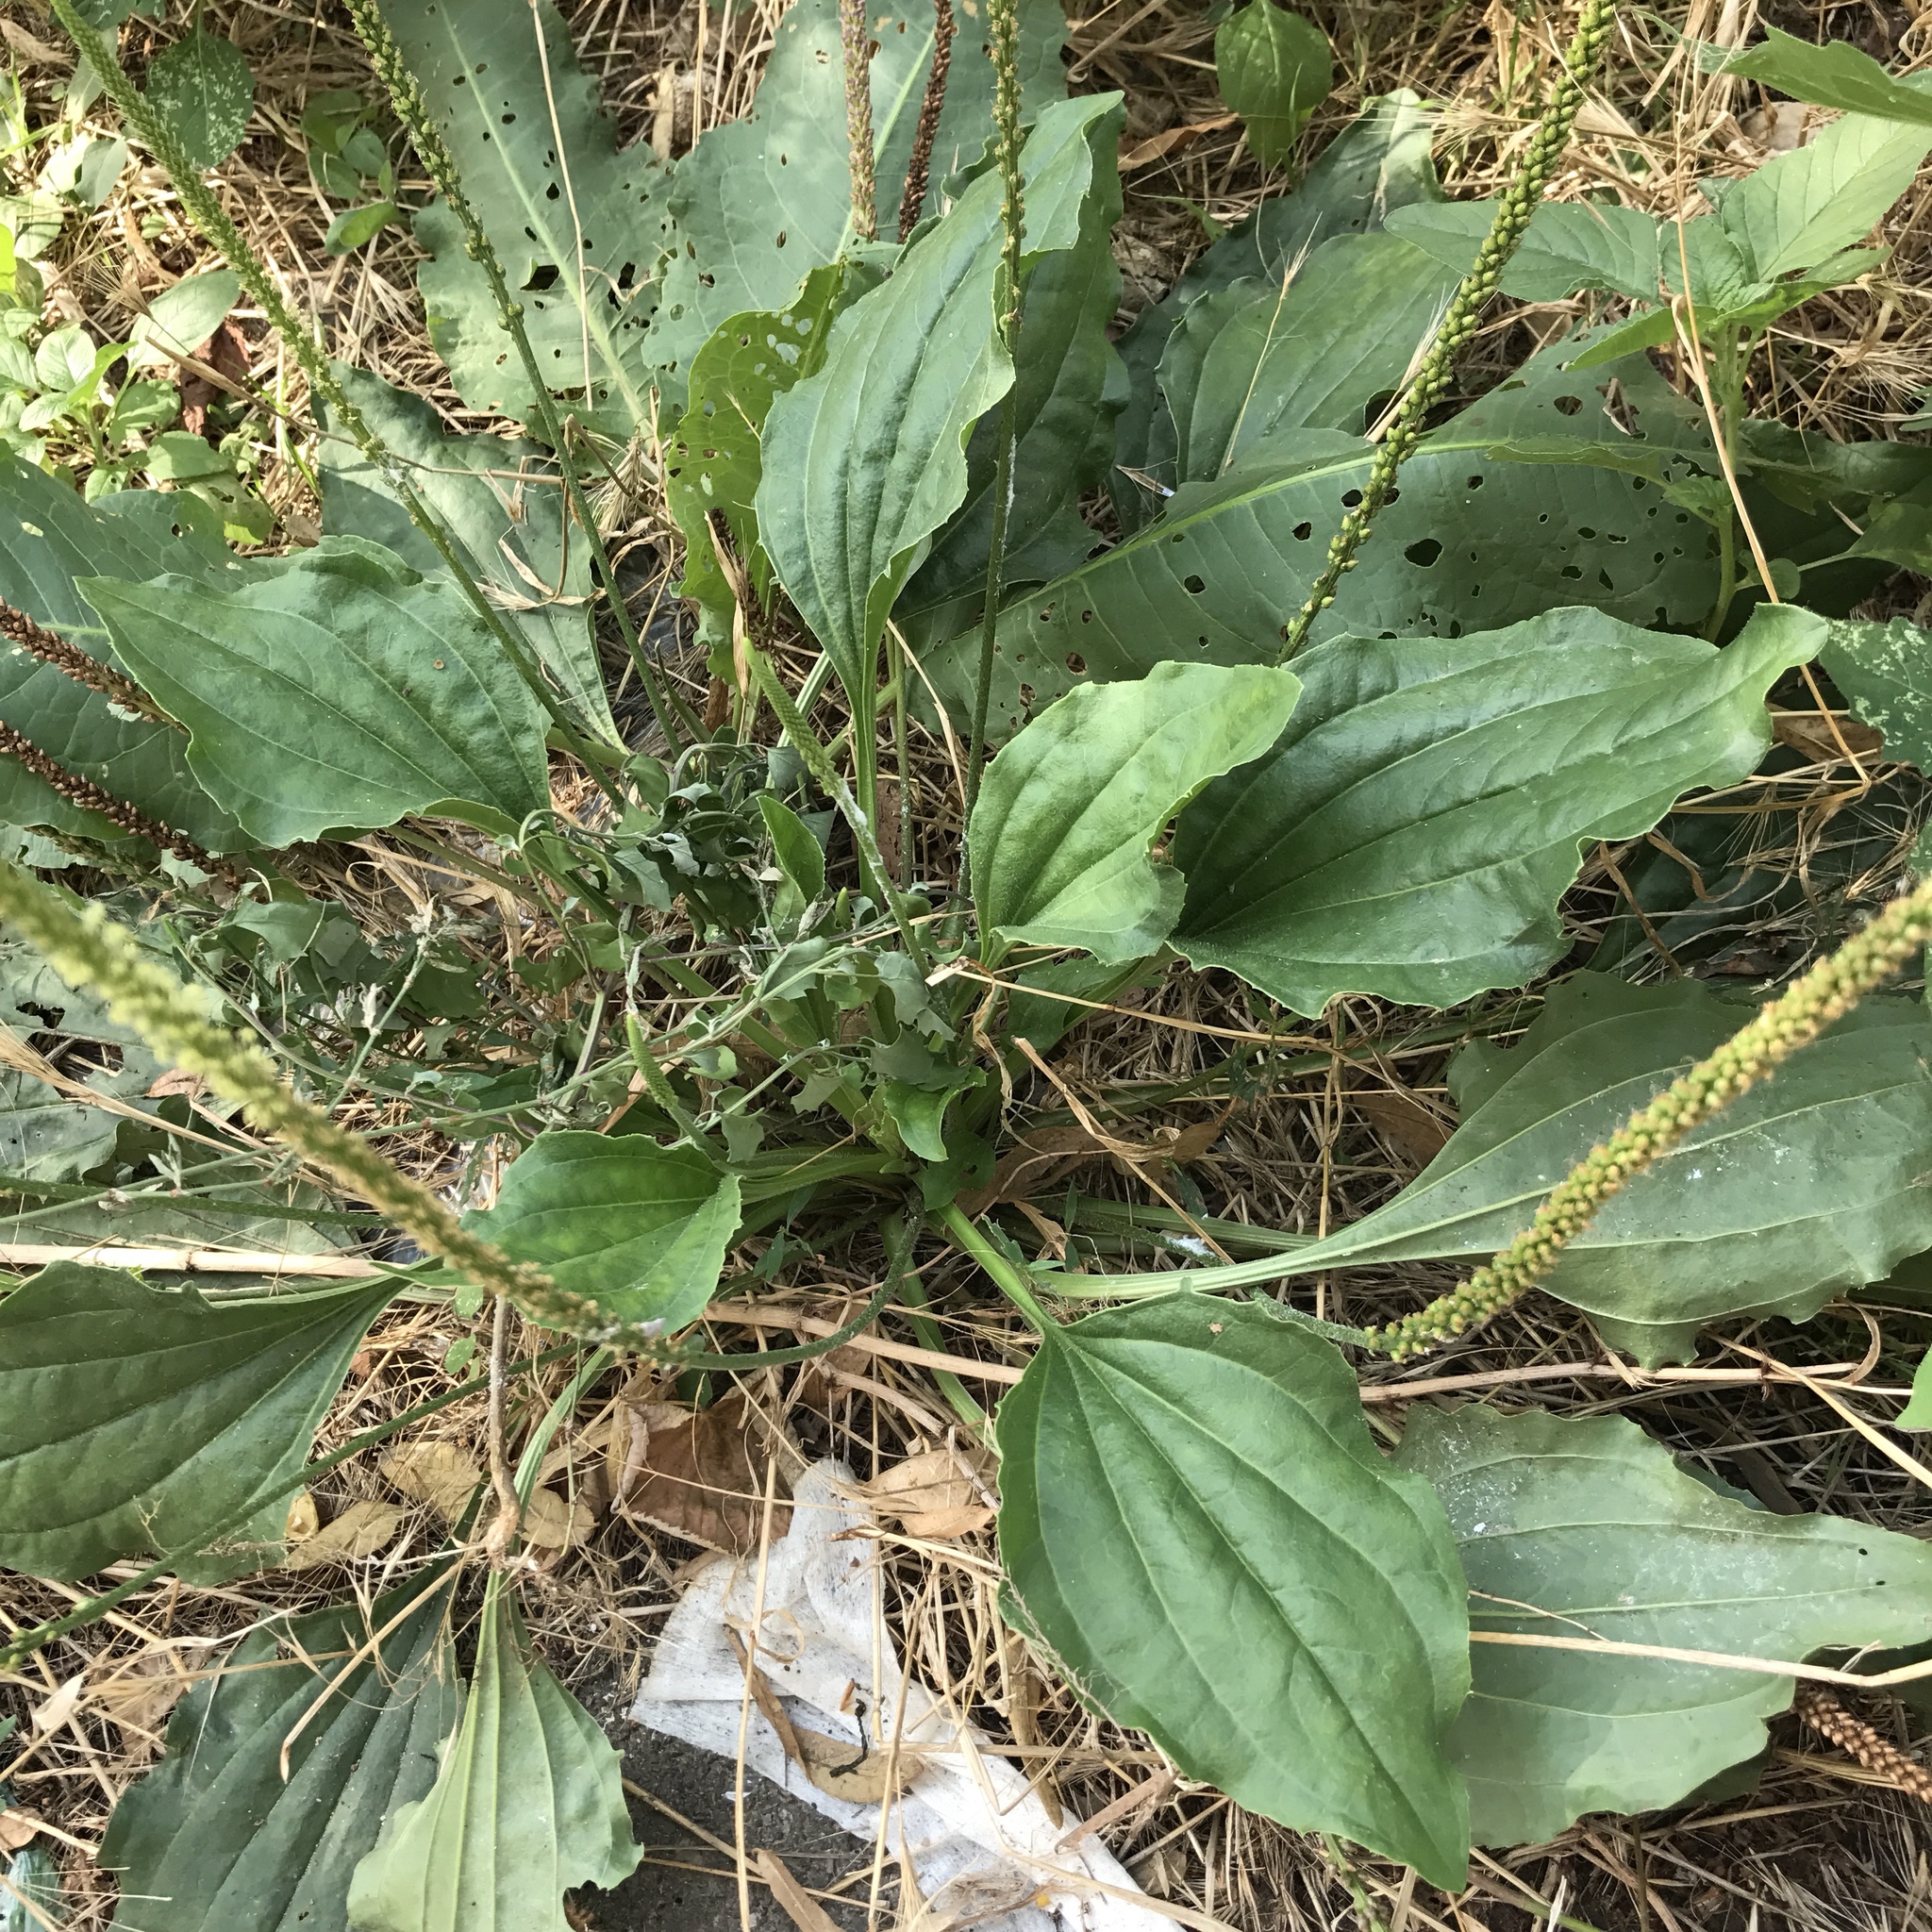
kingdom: Plantae
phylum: Tracheophyta
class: Magnoliopsida
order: Lamiales
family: Plantaginaceae
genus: Plantago
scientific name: Plantago major
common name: Common plantain
